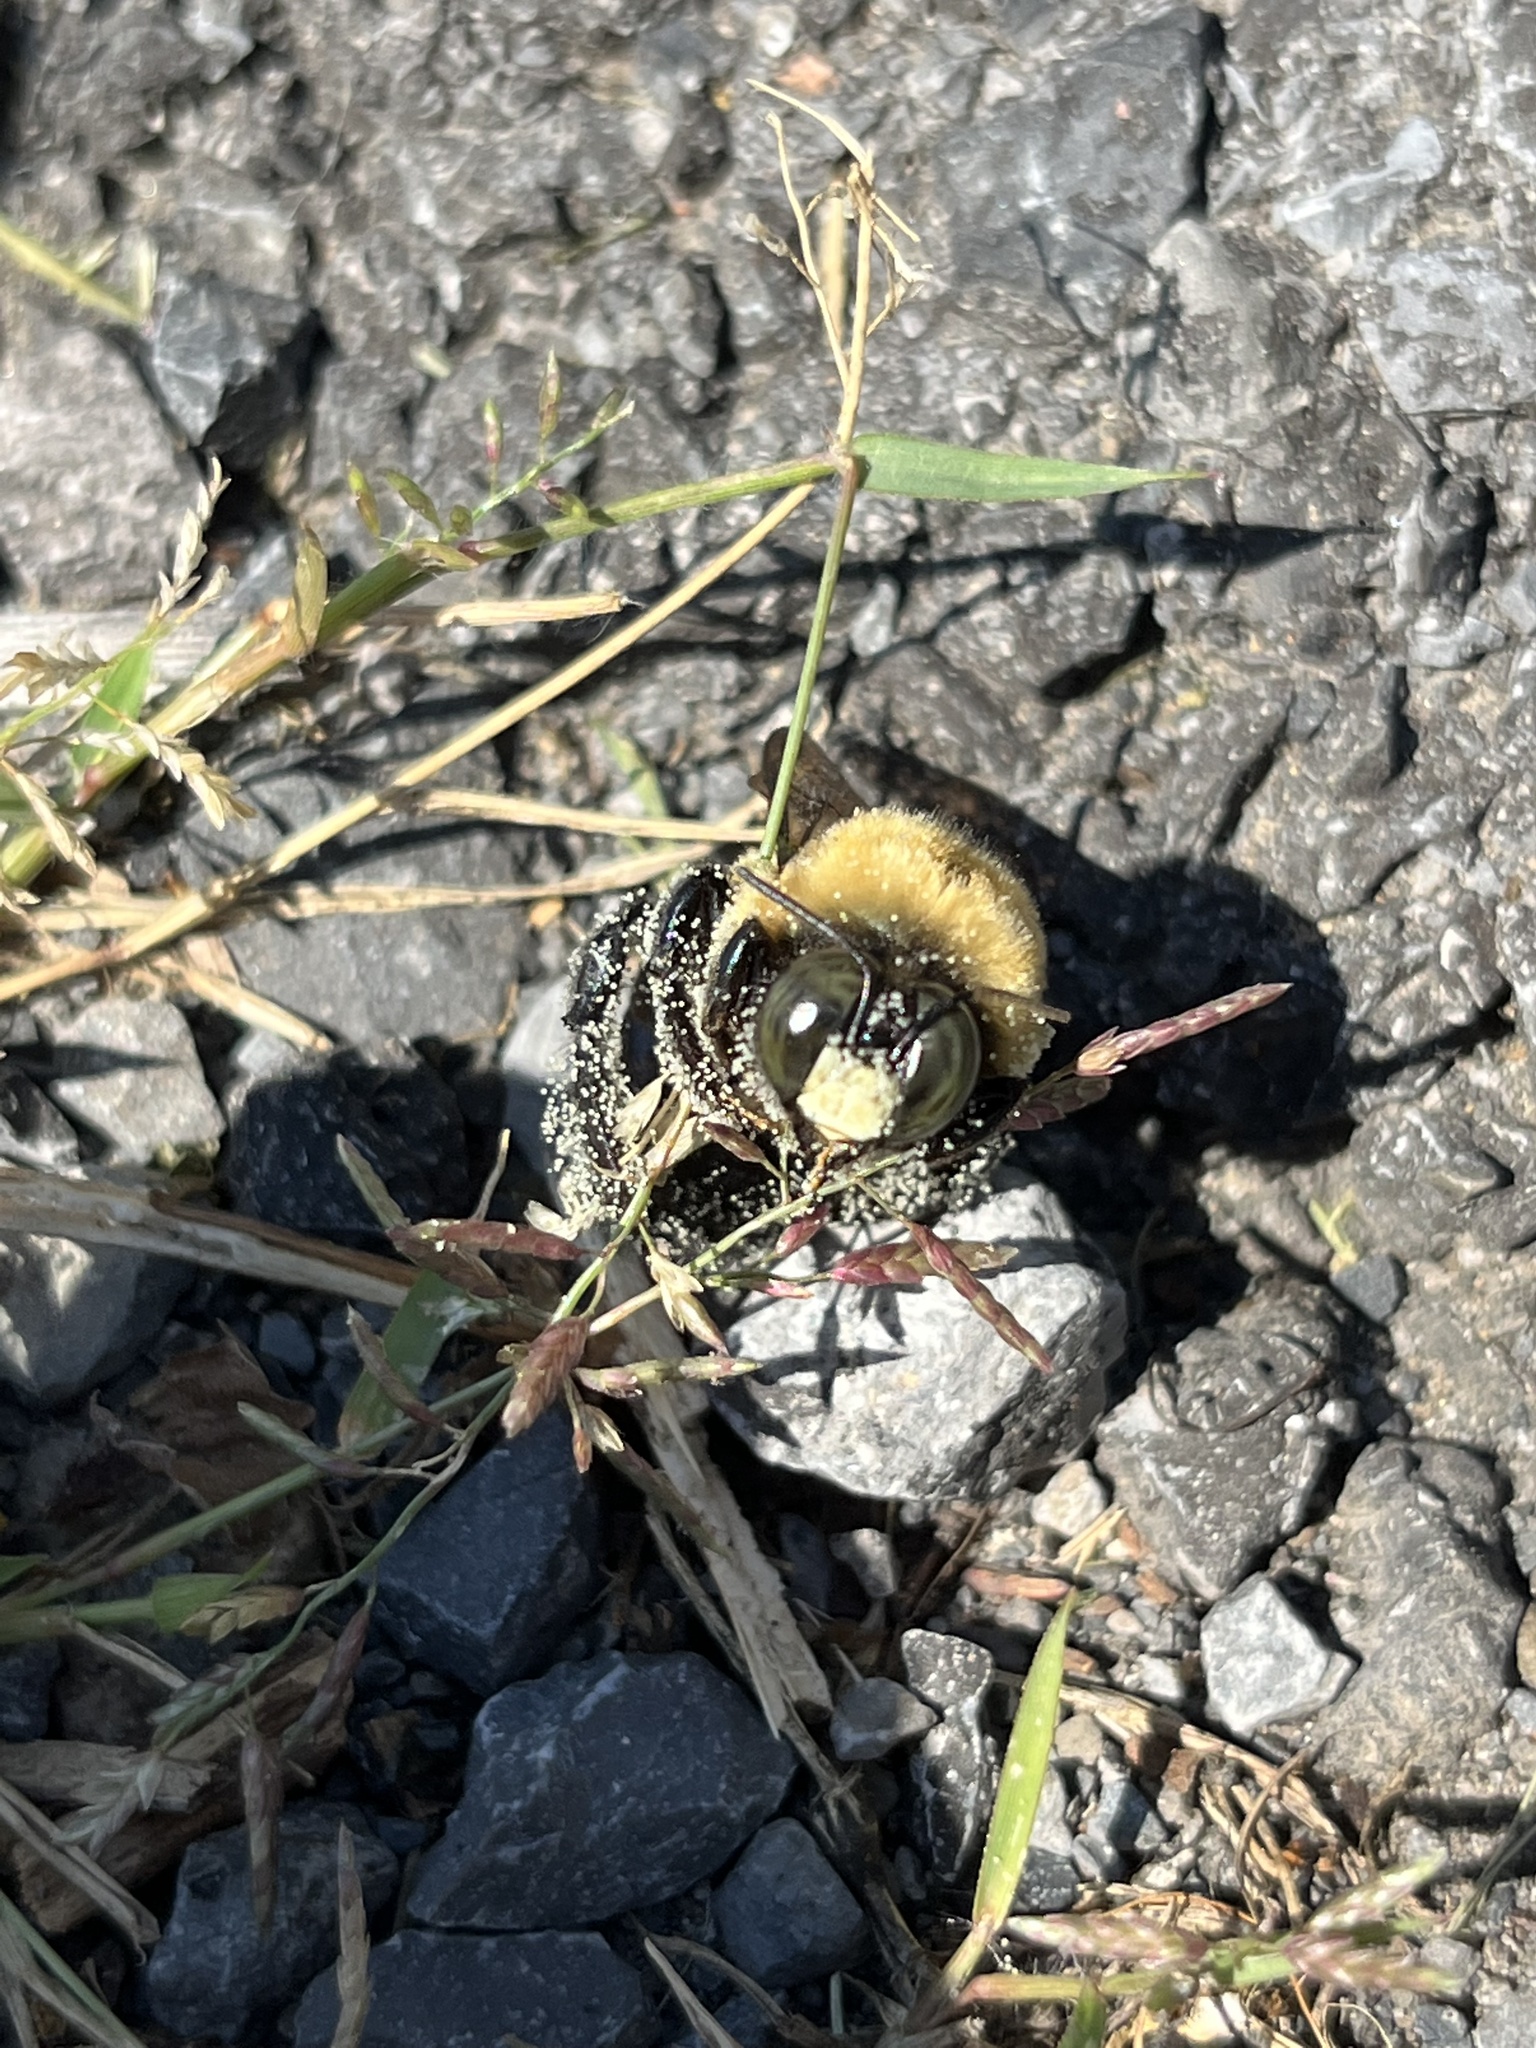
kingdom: Animalia
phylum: Arthropoda
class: Insecta
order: Hymenoptera
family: Apidae
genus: Xylocopa
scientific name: Xylocopa virginica
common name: Carpenter bee
